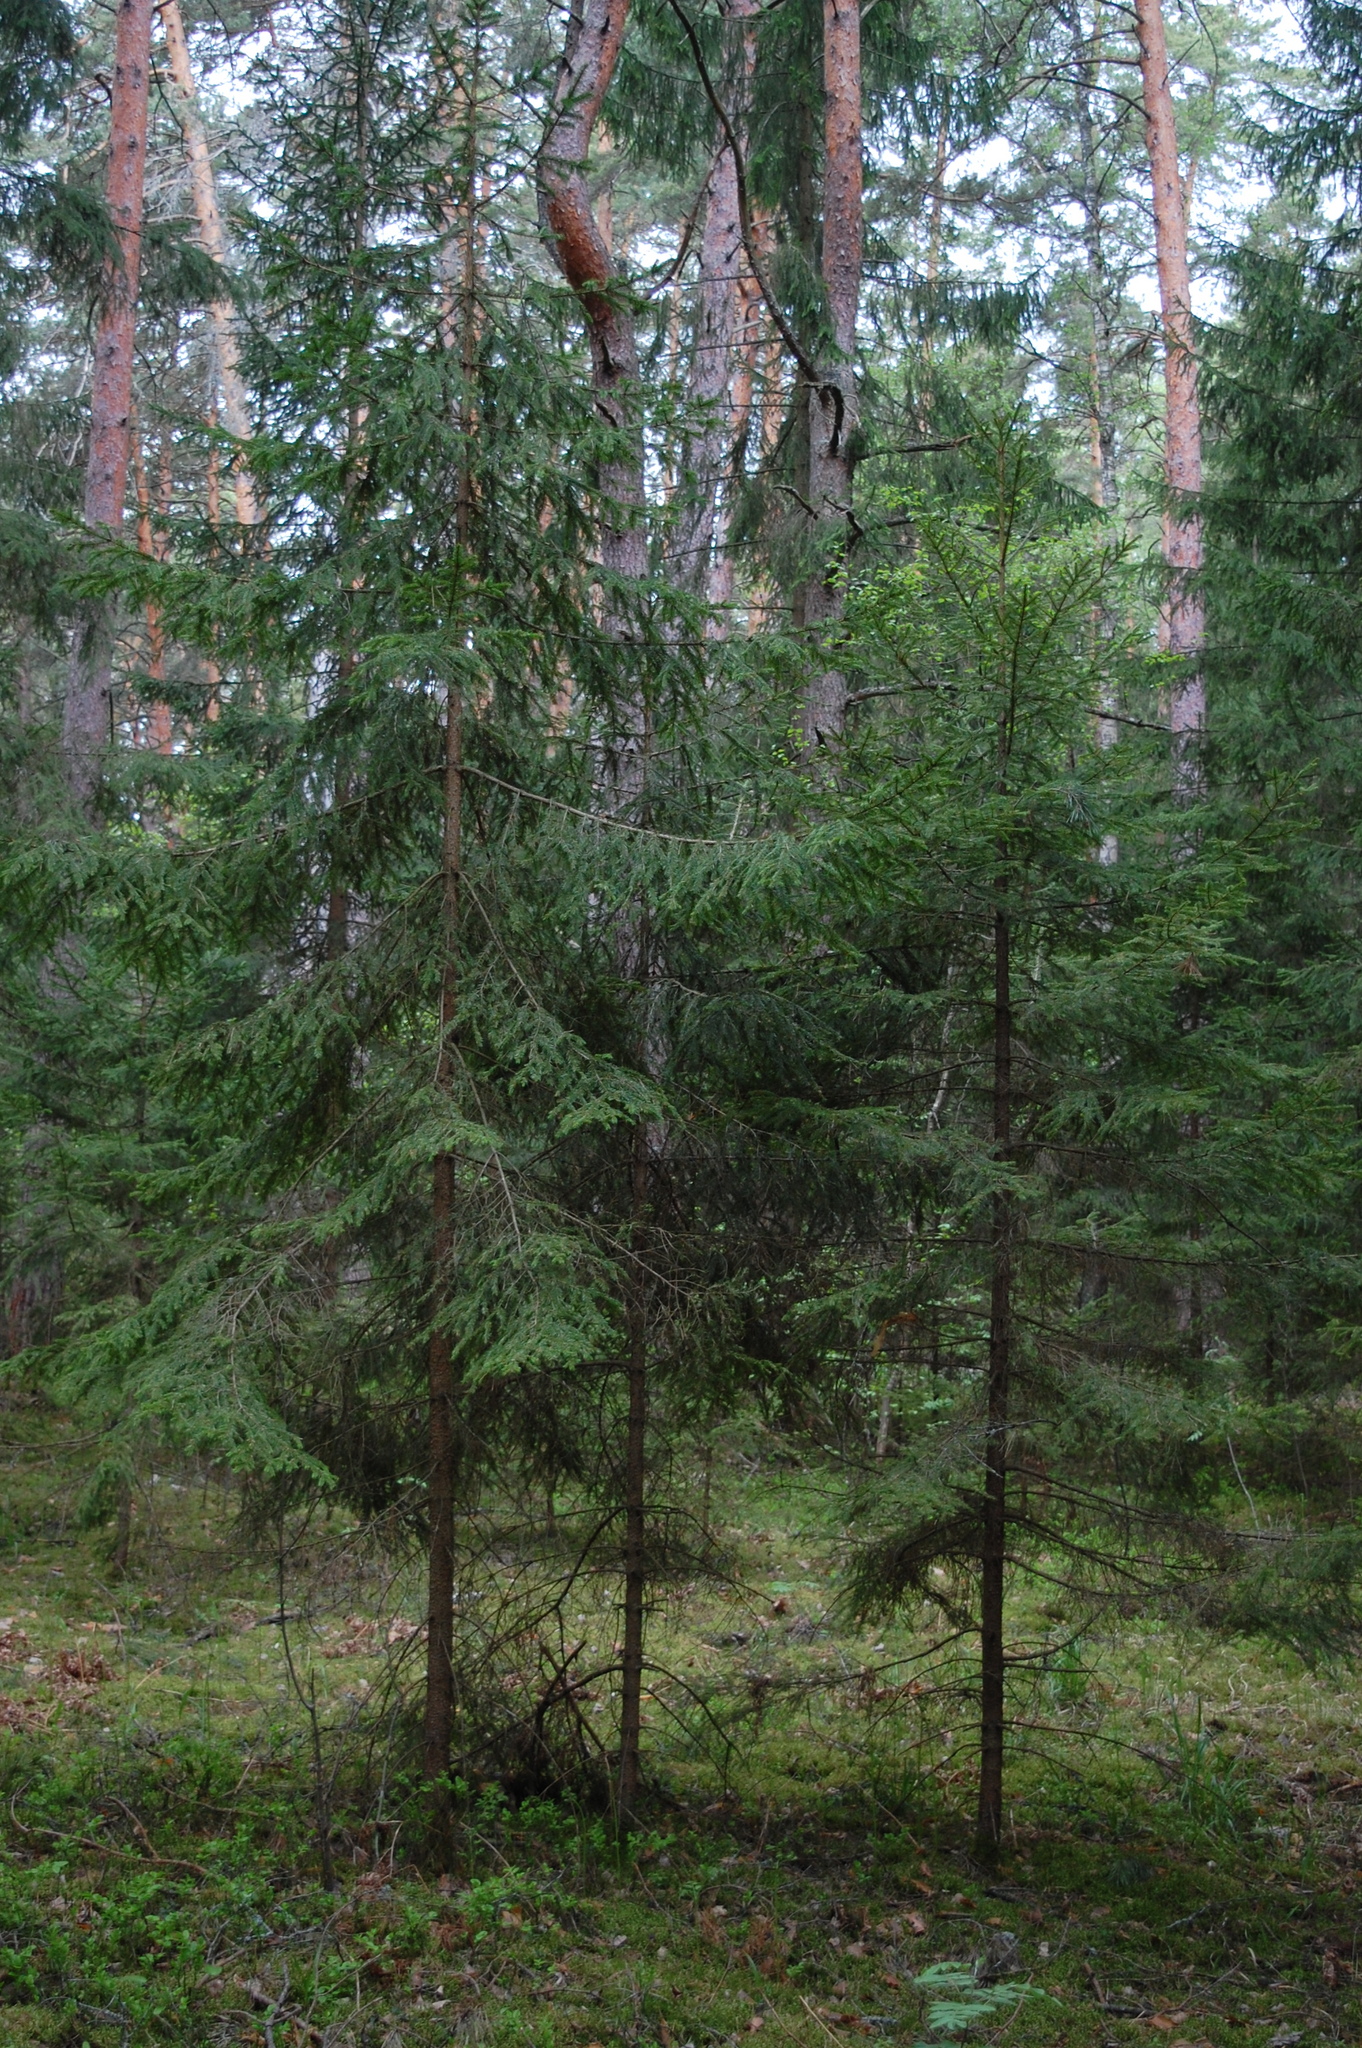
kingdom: Plantae
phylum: Tracheophyta
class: Pinopsida
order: Pinales
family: Pinaceae
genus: Picea
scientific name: Picea abies
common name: Norway spruce
